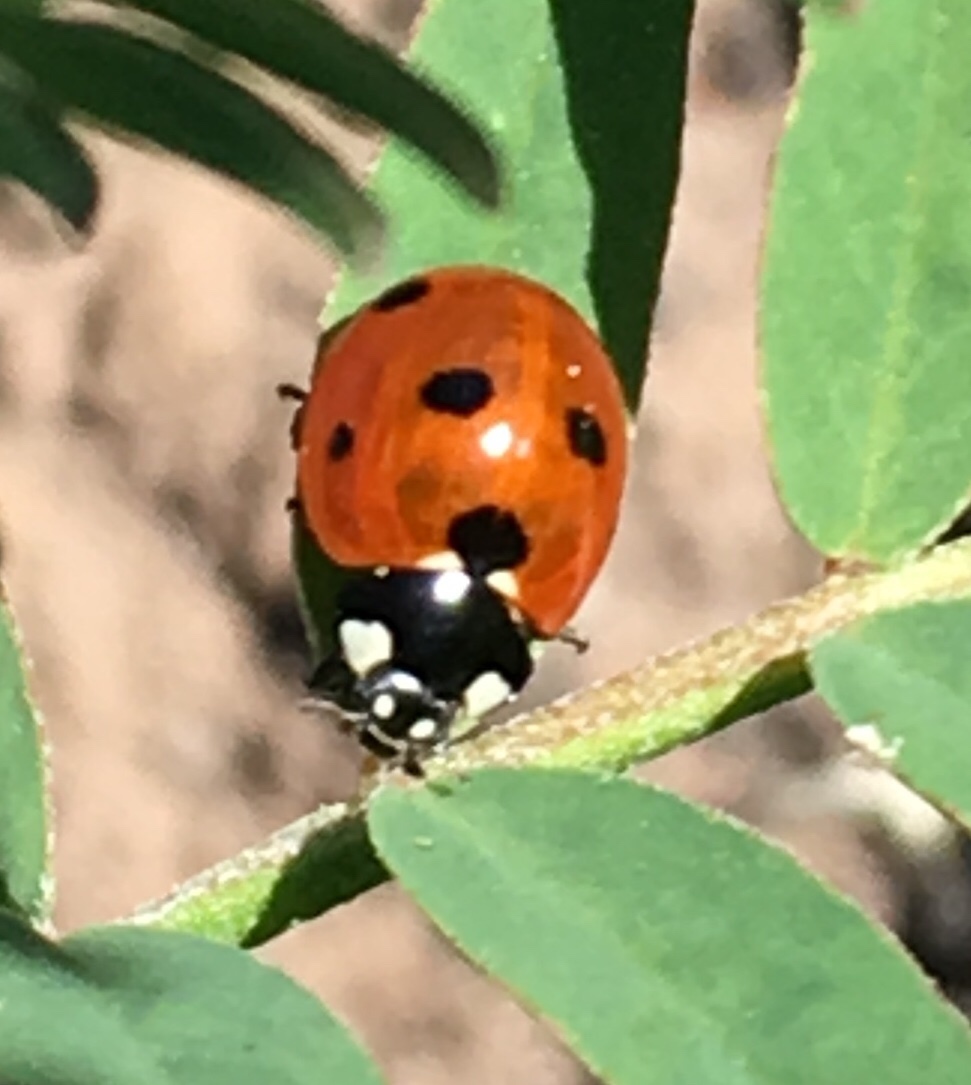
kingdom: Animalia
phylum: Arthropoda
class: Insecta
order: Coleoptera
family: Coccinellidae
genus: Coccinella
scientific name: Coccinella septempunctata
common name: Sevenspotted lady beetle
